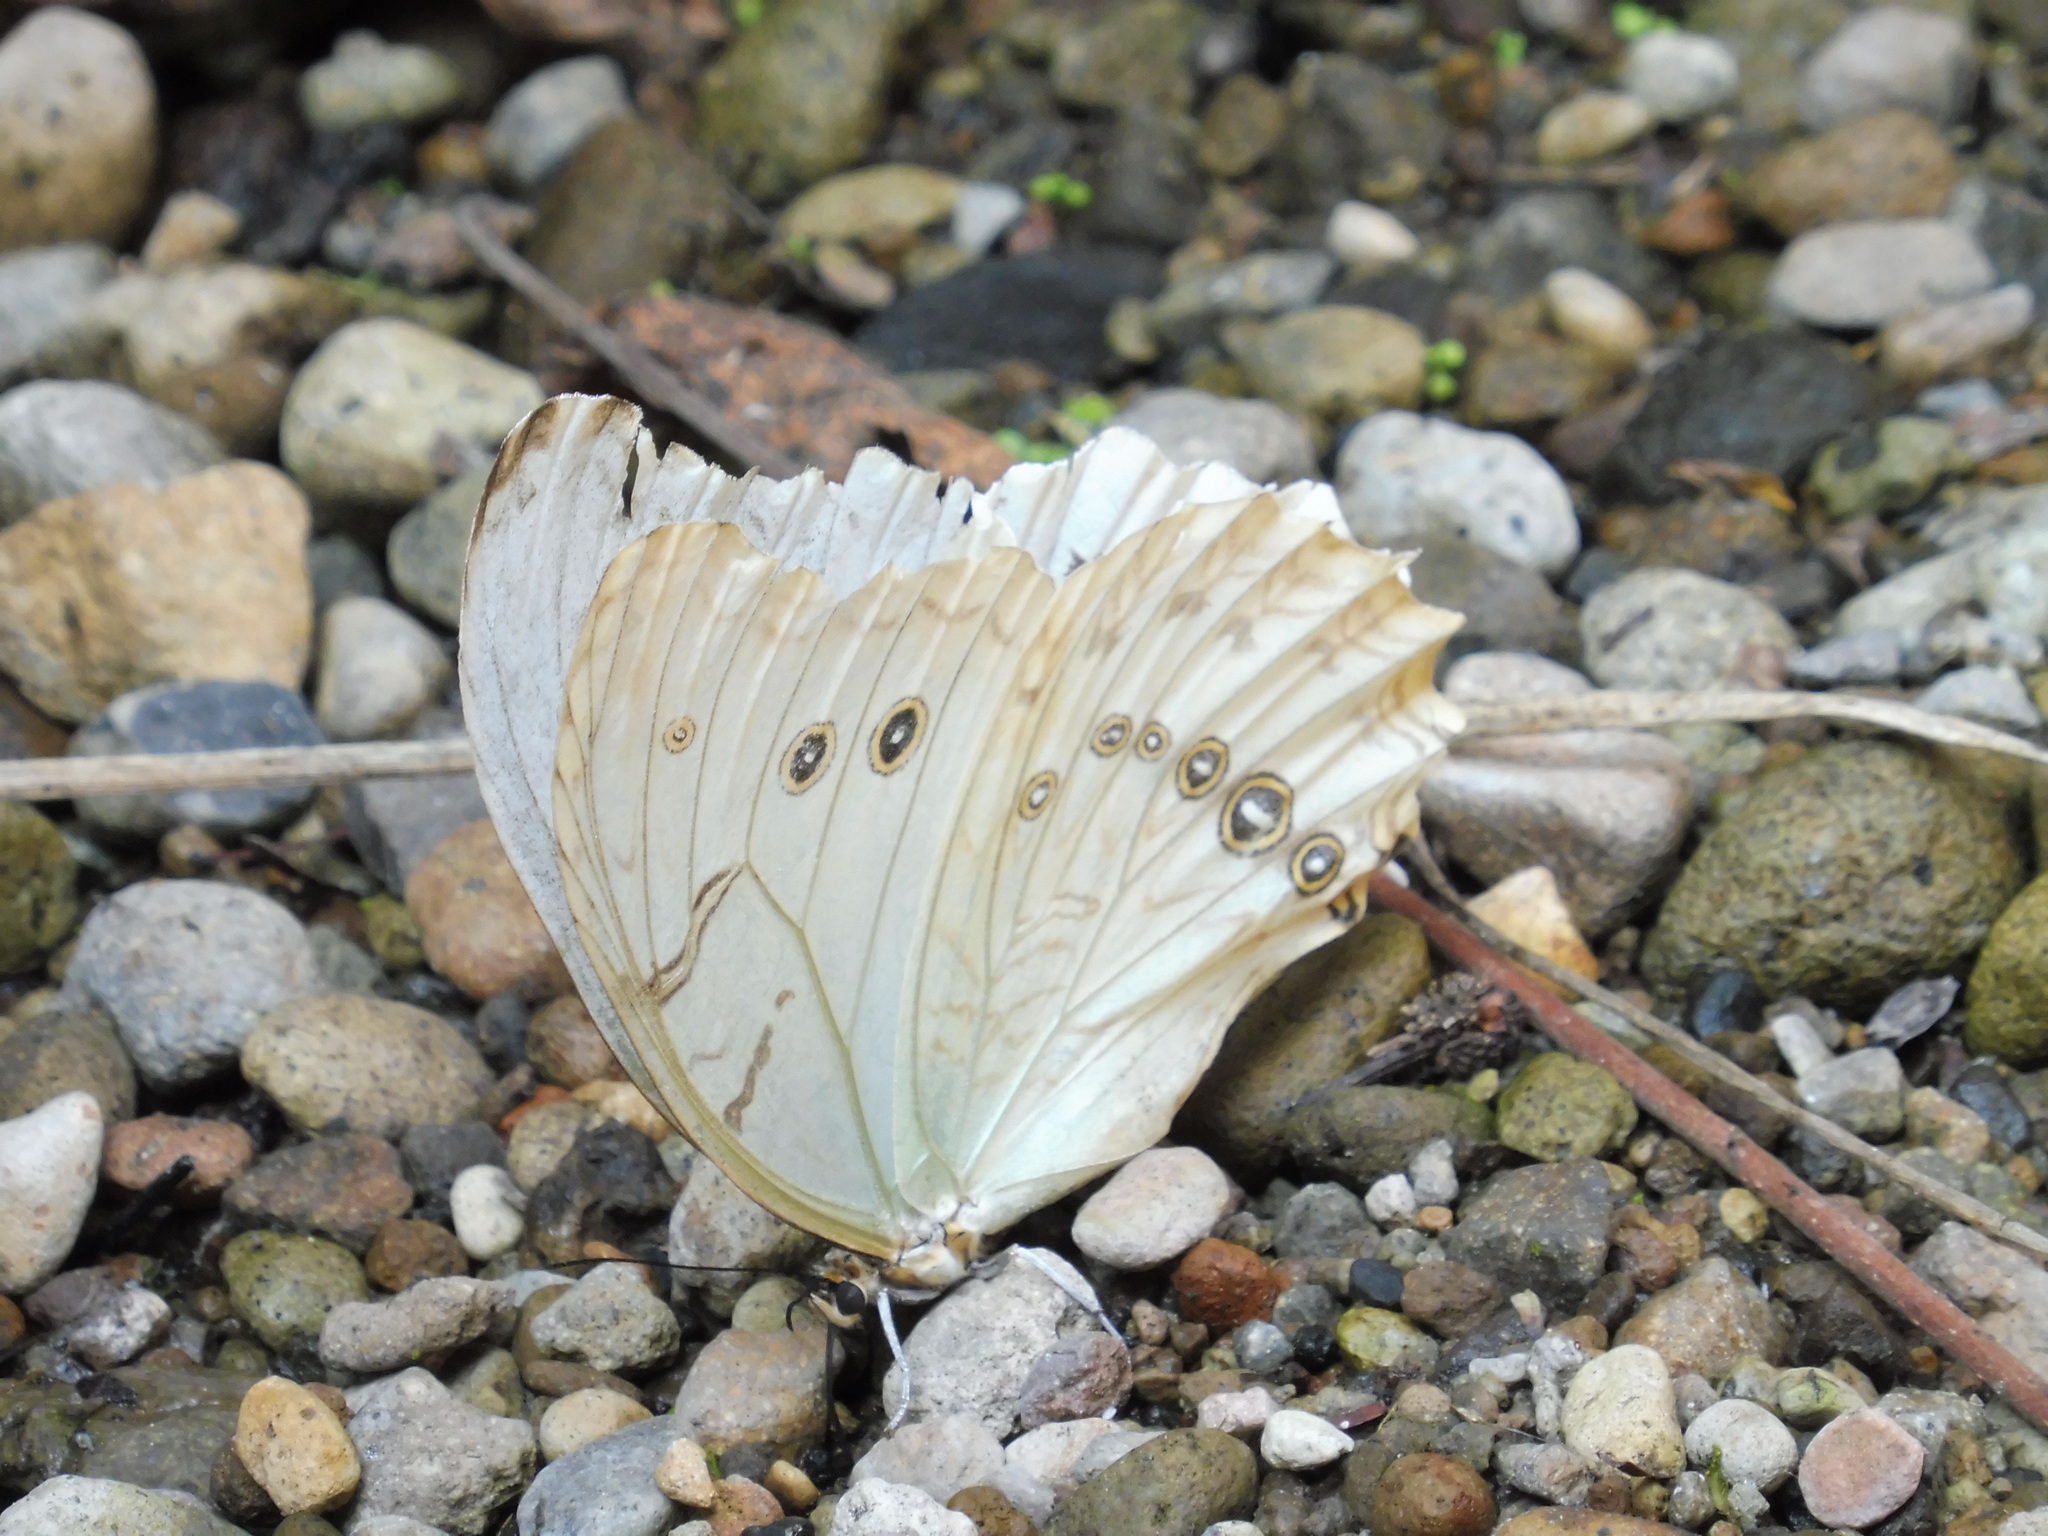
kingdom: Animalia
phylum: Arthropoda
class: Insecta
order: Lepidoptera
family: Nymphalidae
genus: Morpho
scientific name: Morpho polyphemus
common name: White morpho
